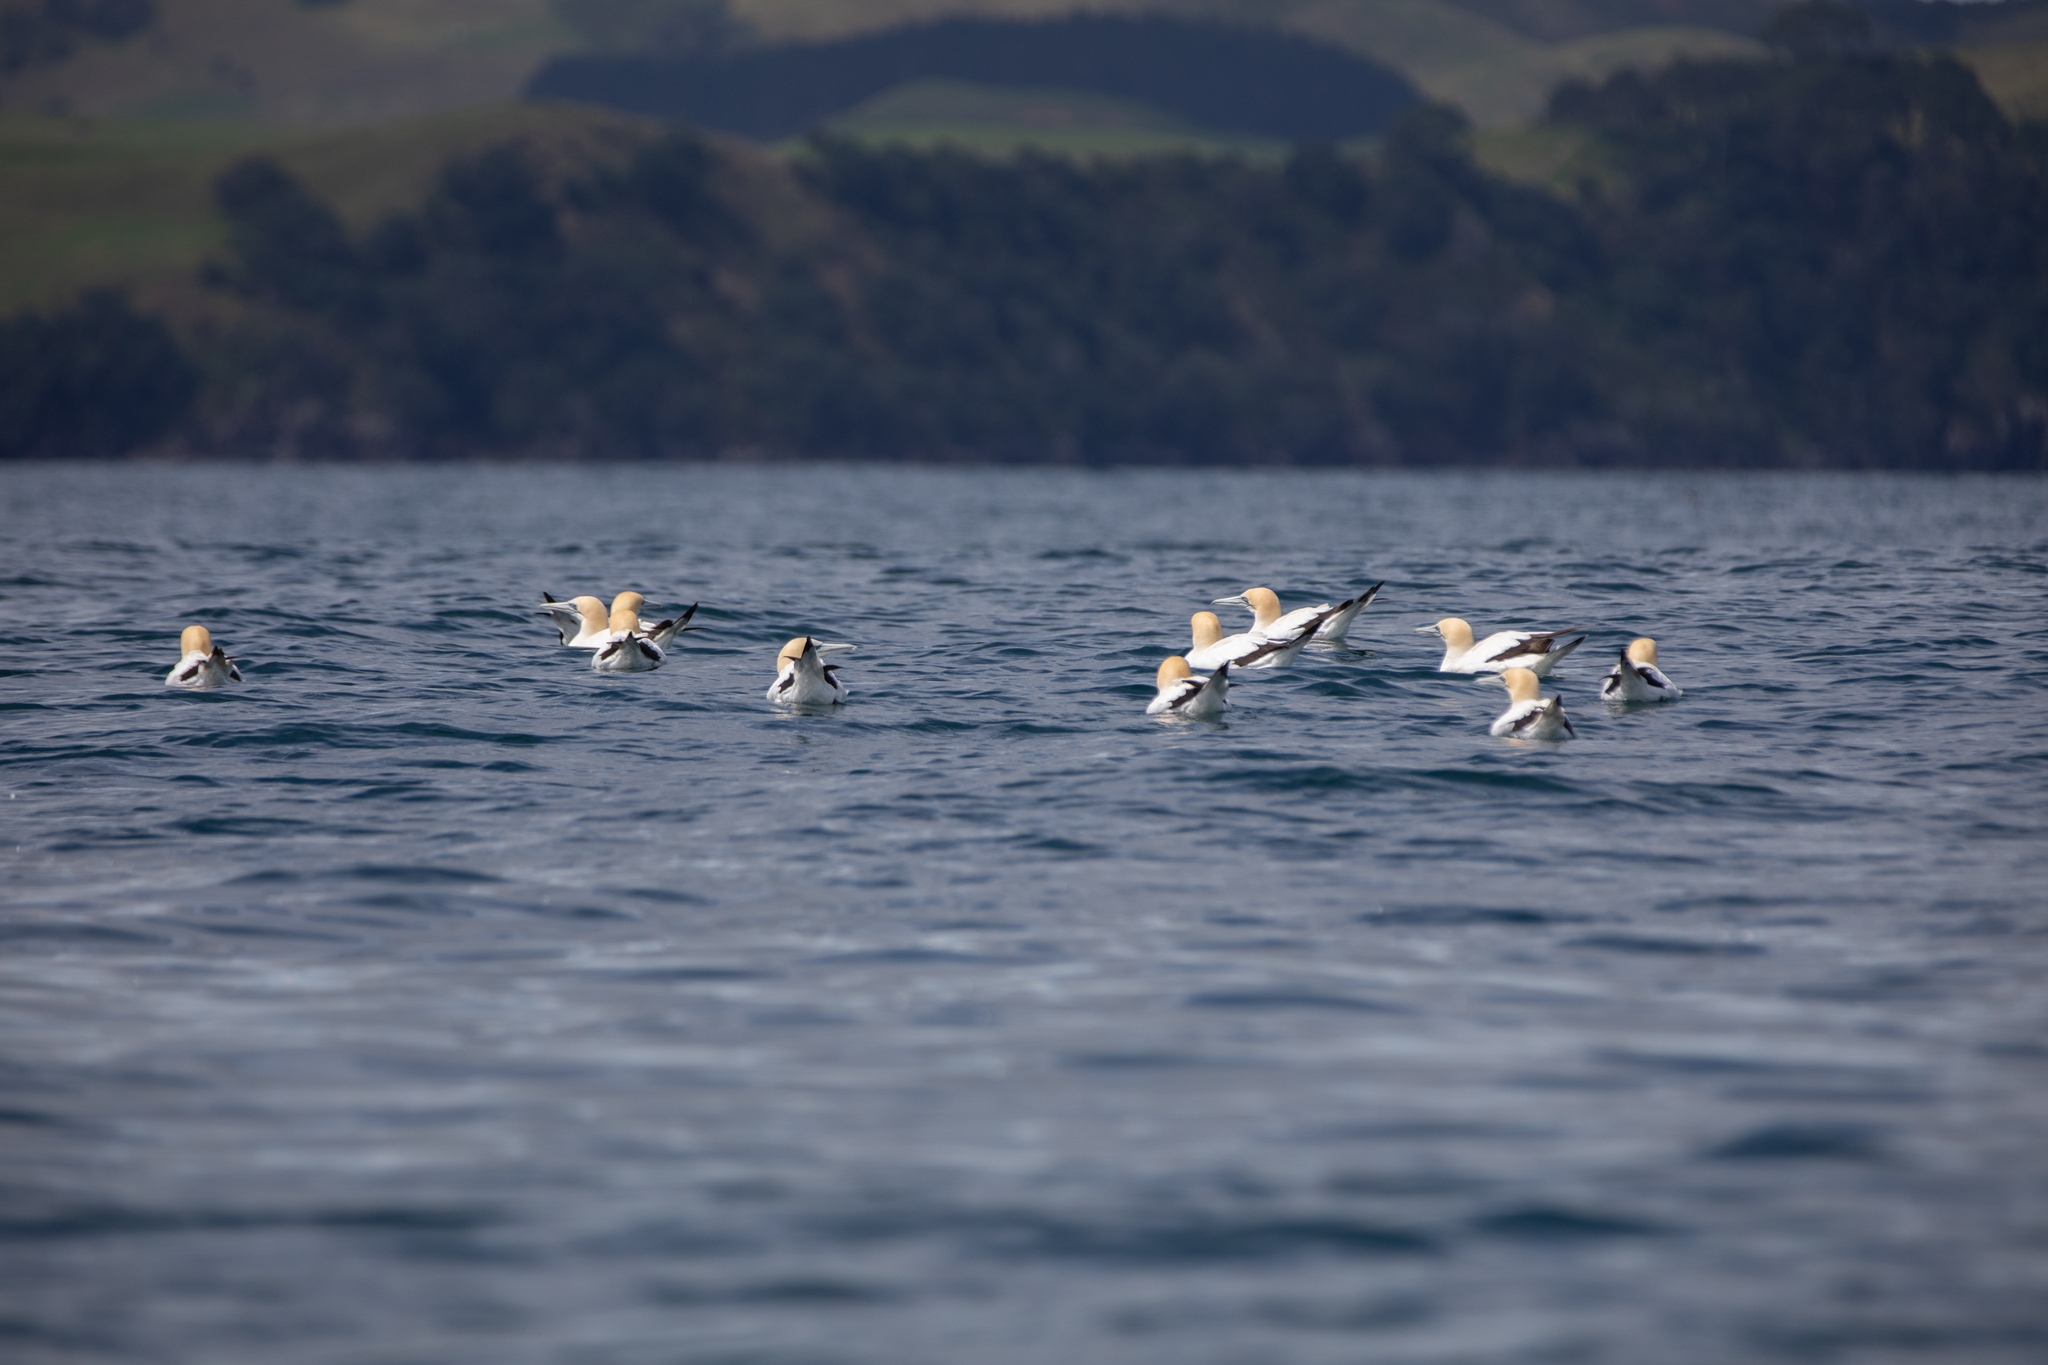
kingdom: Animalia
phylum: Chordata
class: Aves
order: Suliformes
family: Sulidae
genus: Morus
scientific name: Morus serrator
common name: Australasian gannet
